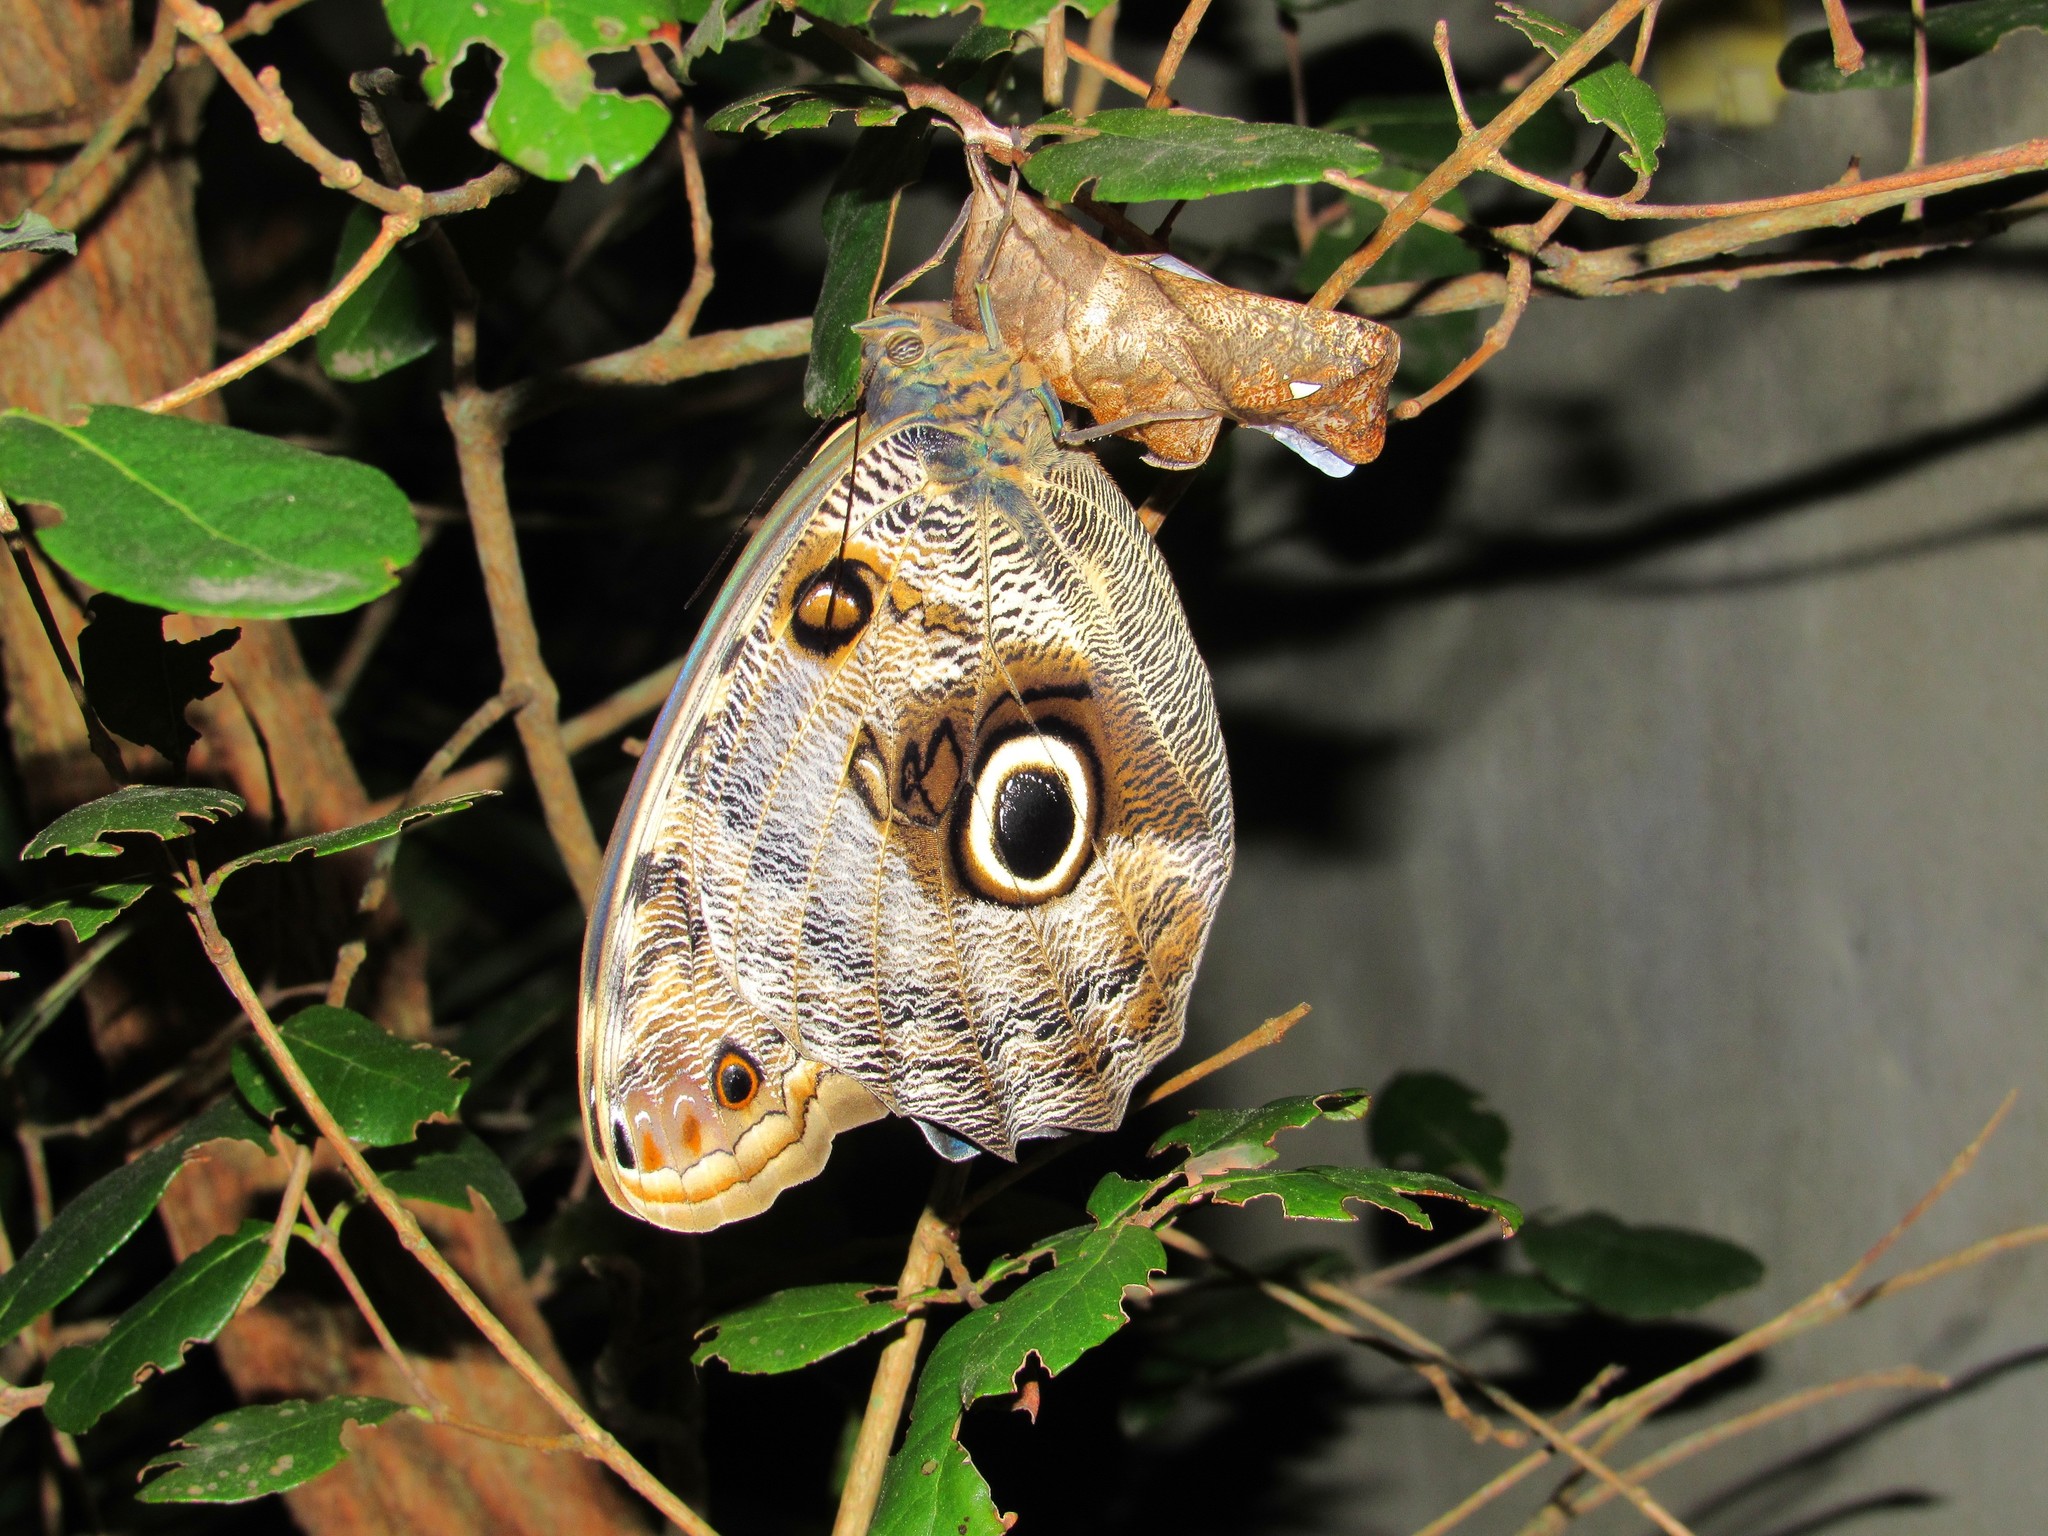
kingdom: Animalia
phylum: Arthropoda
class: Insecta
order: Lepidoptera
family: Nymphalidae
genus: Caligo
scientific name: Caligo brasiliensis
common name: Dark owl-butterfly
